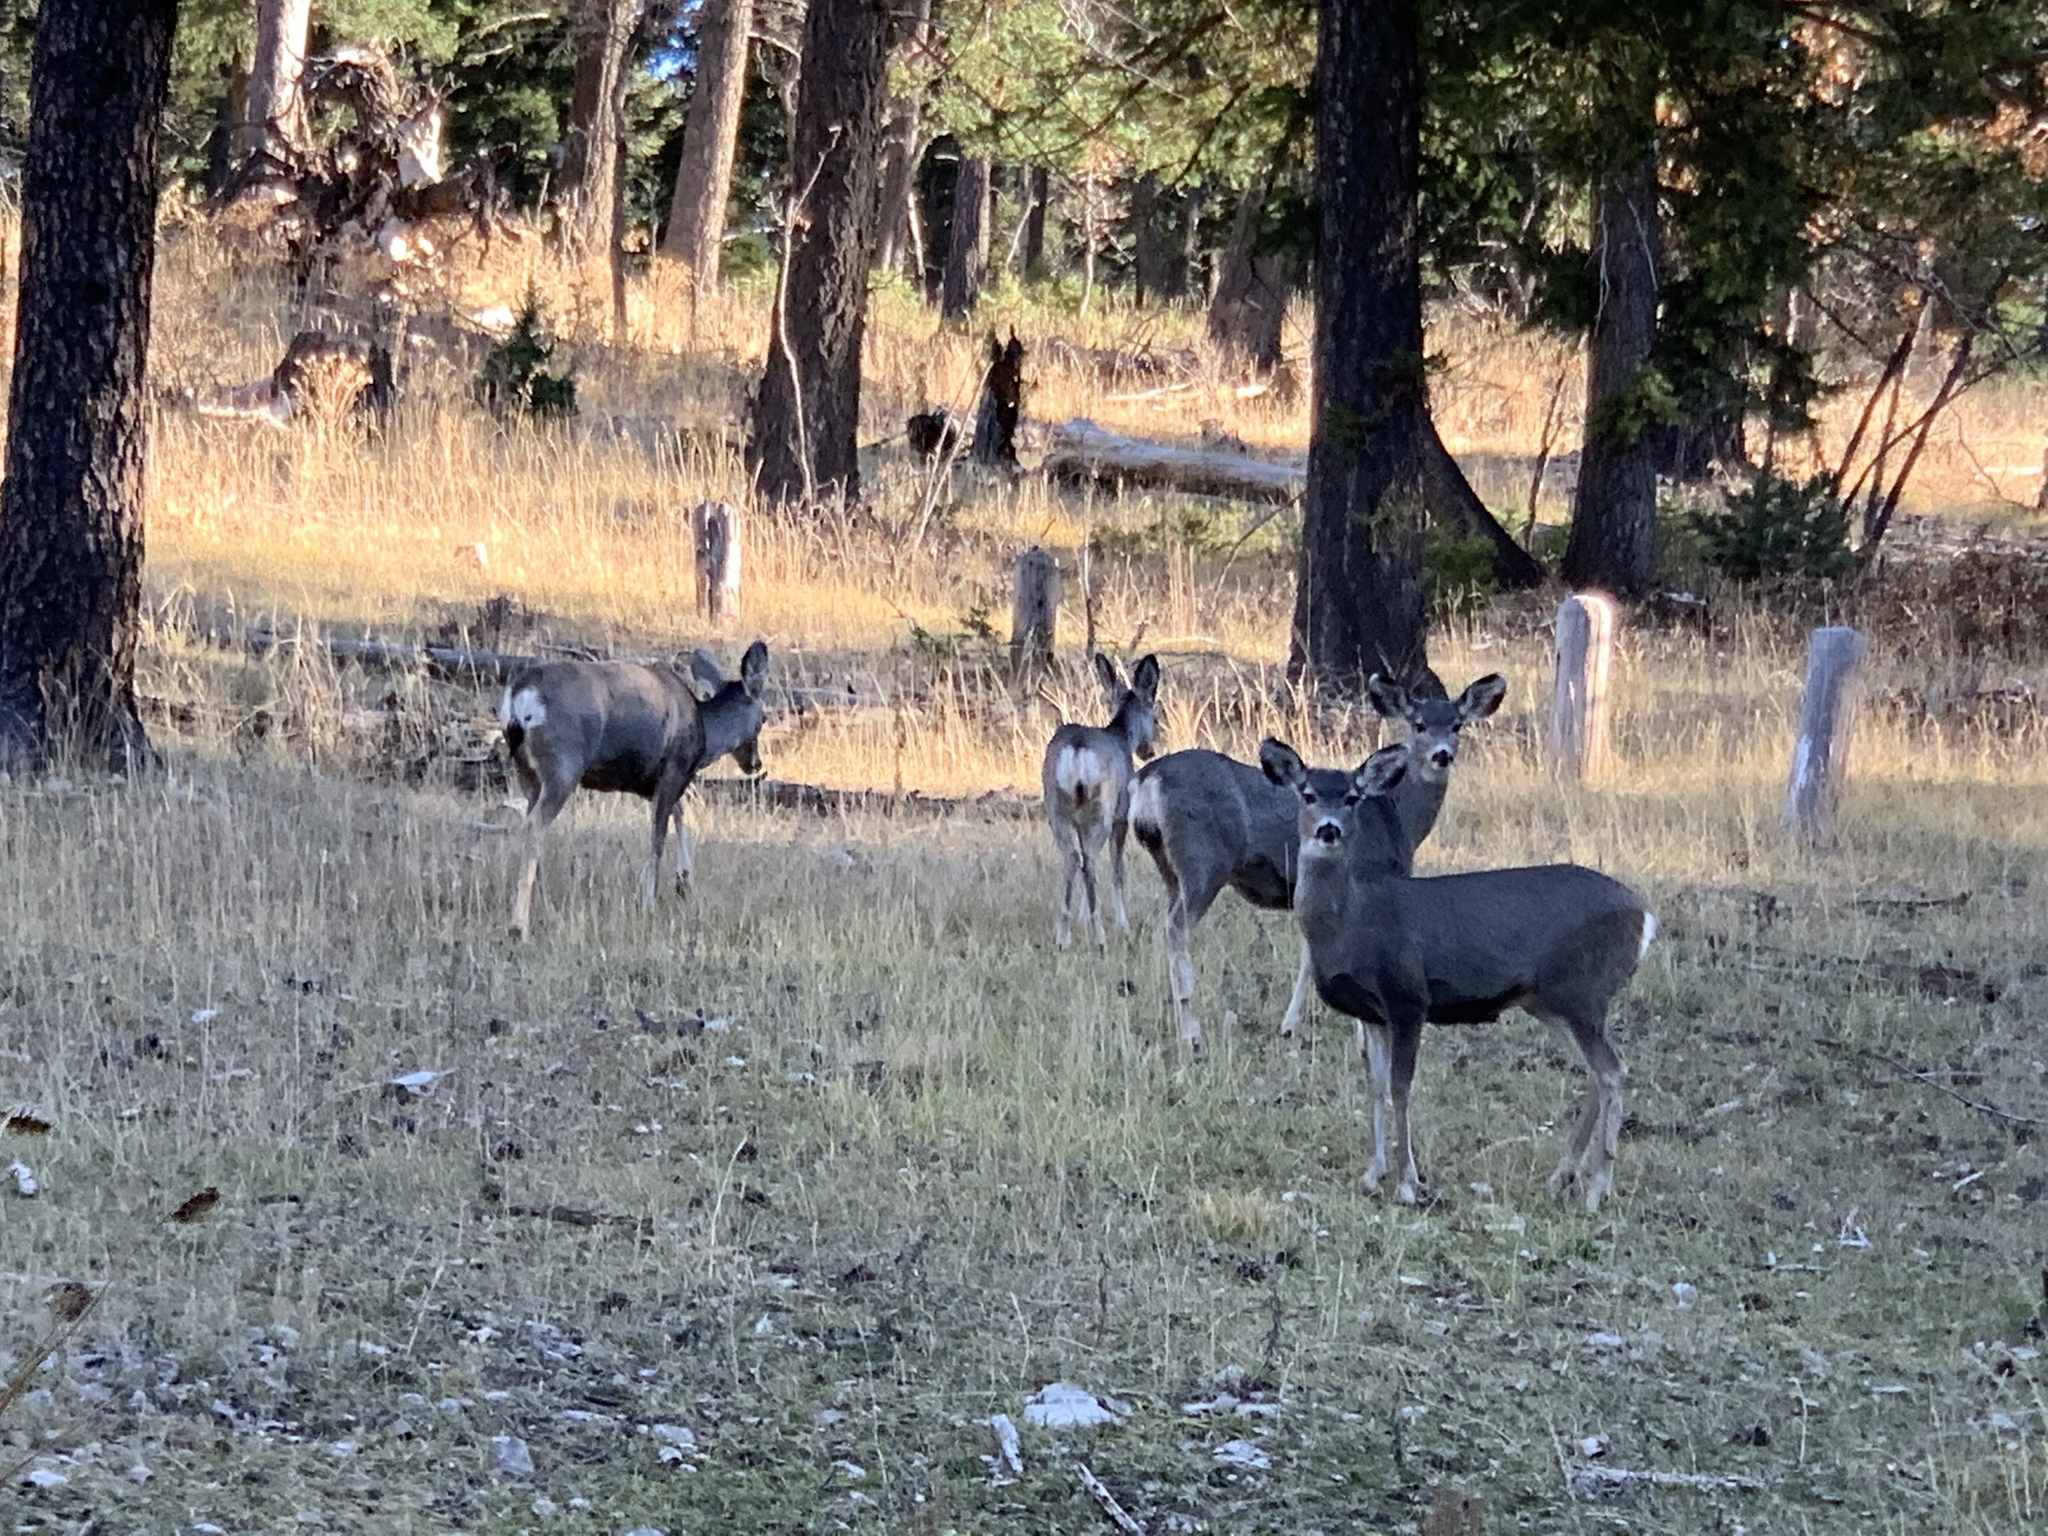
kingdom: Animalia
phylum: Chordata
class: Mammalia
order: Artiodactyla
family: Cervidae
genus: Odocoileus
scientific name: Odocoileus hemionus
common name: Mule deer
